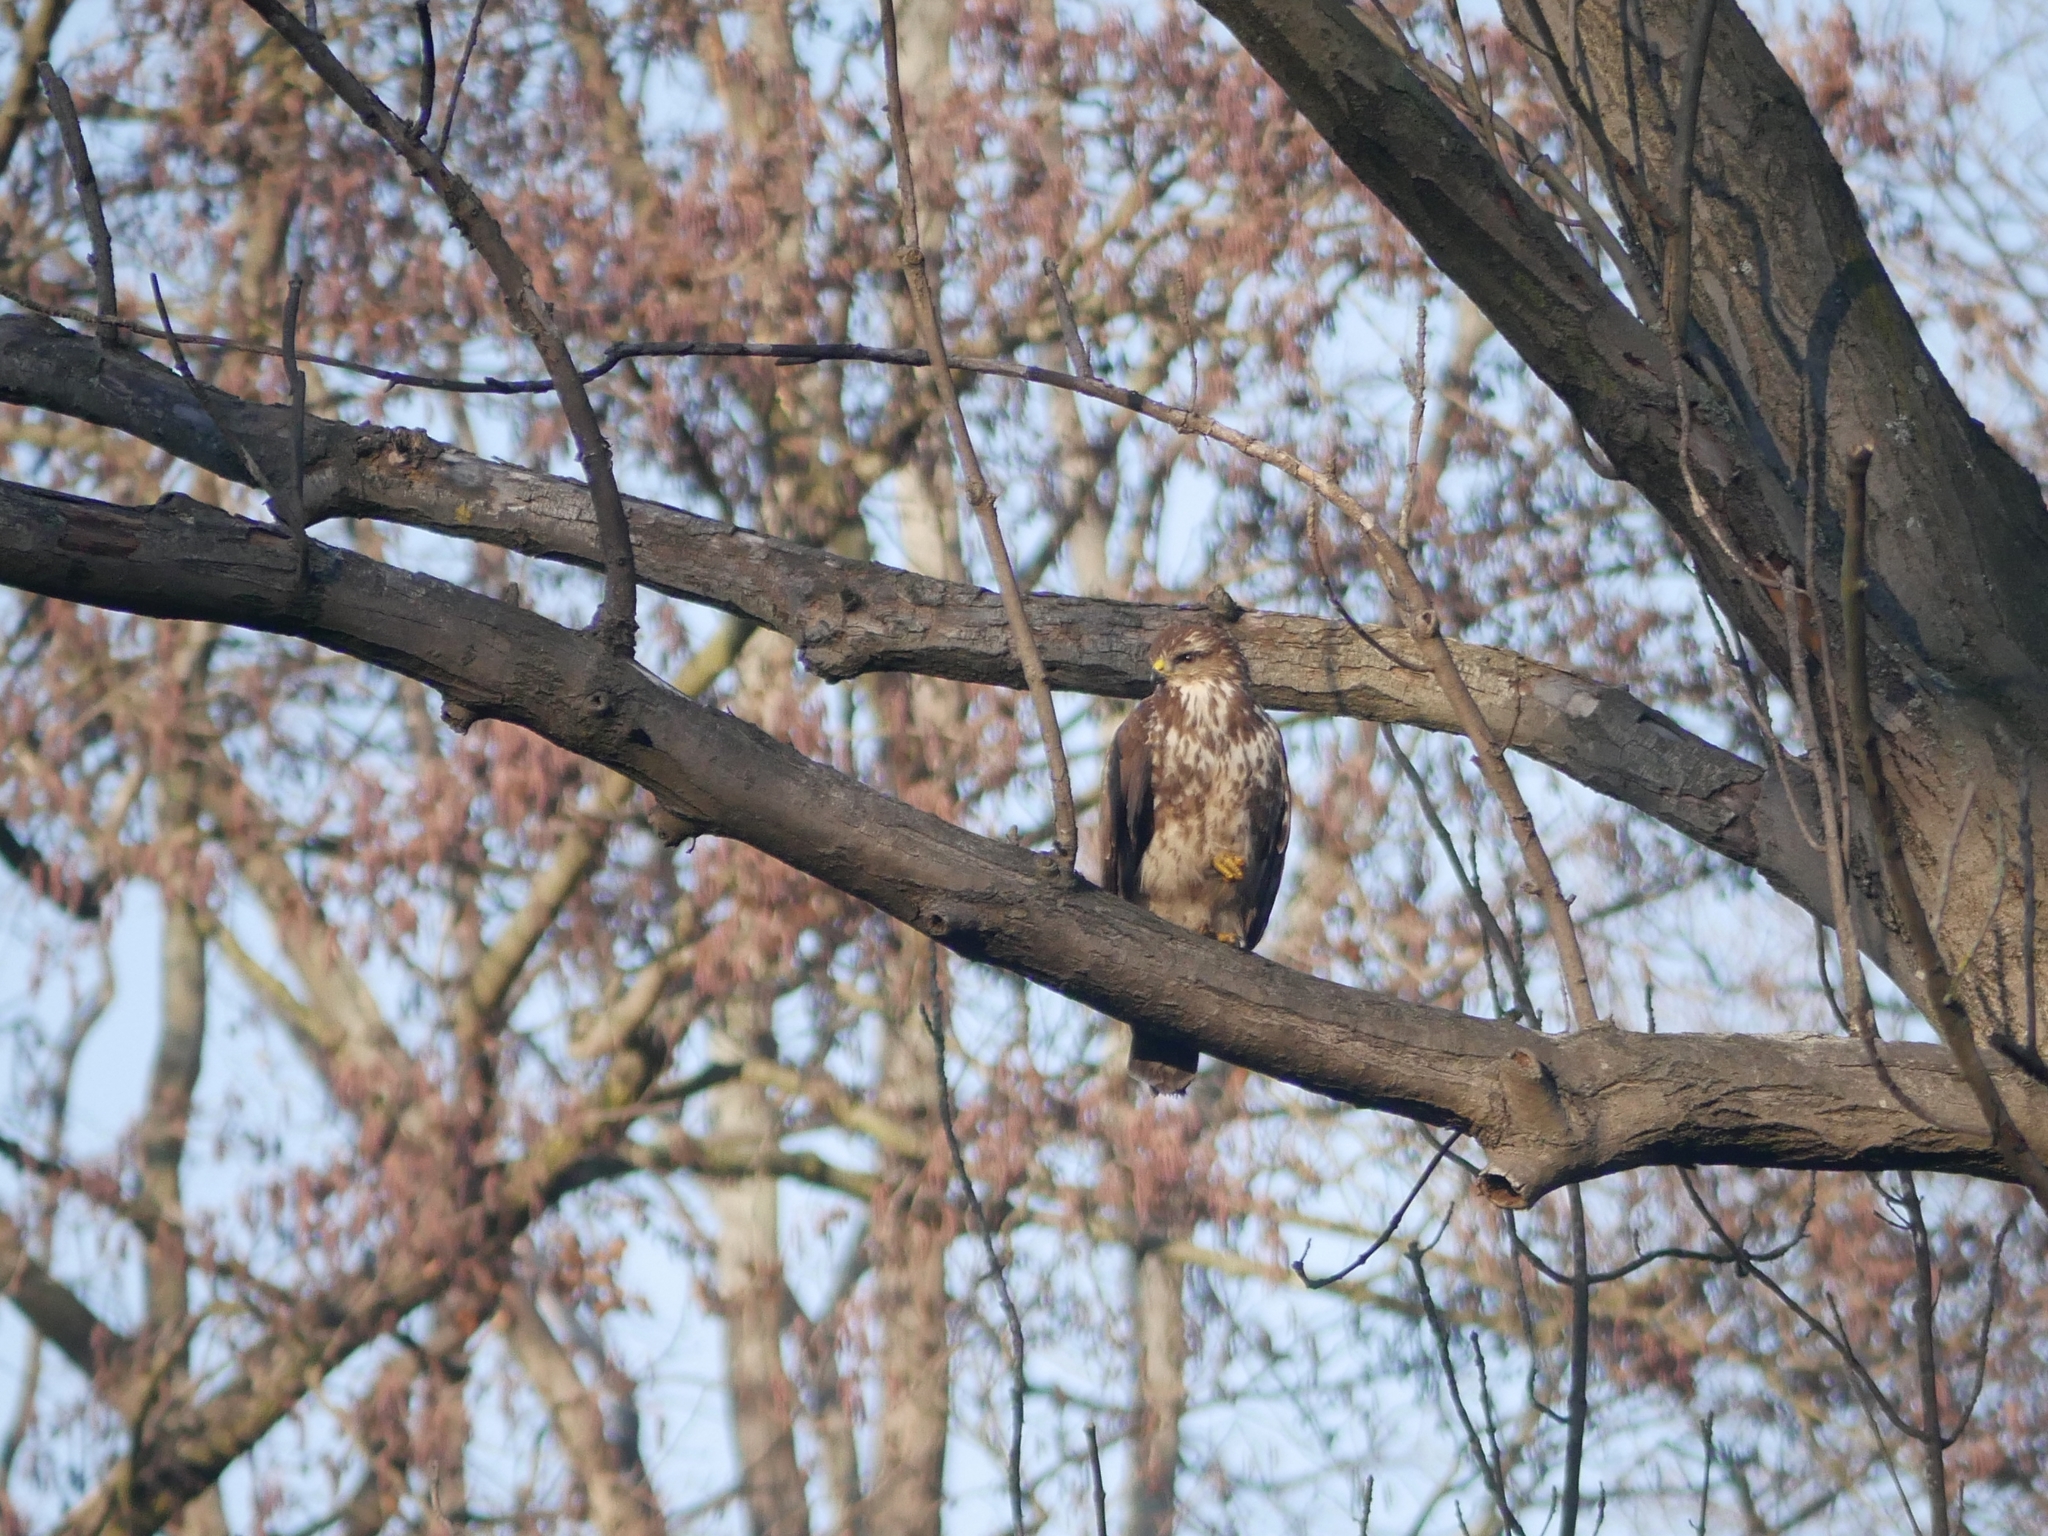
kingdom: Animalia
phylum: Chordata
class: Aves
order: Accipitriformes
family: Accipitridae
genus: Buteo
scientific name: Buteo buteo
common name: Common buzzard
